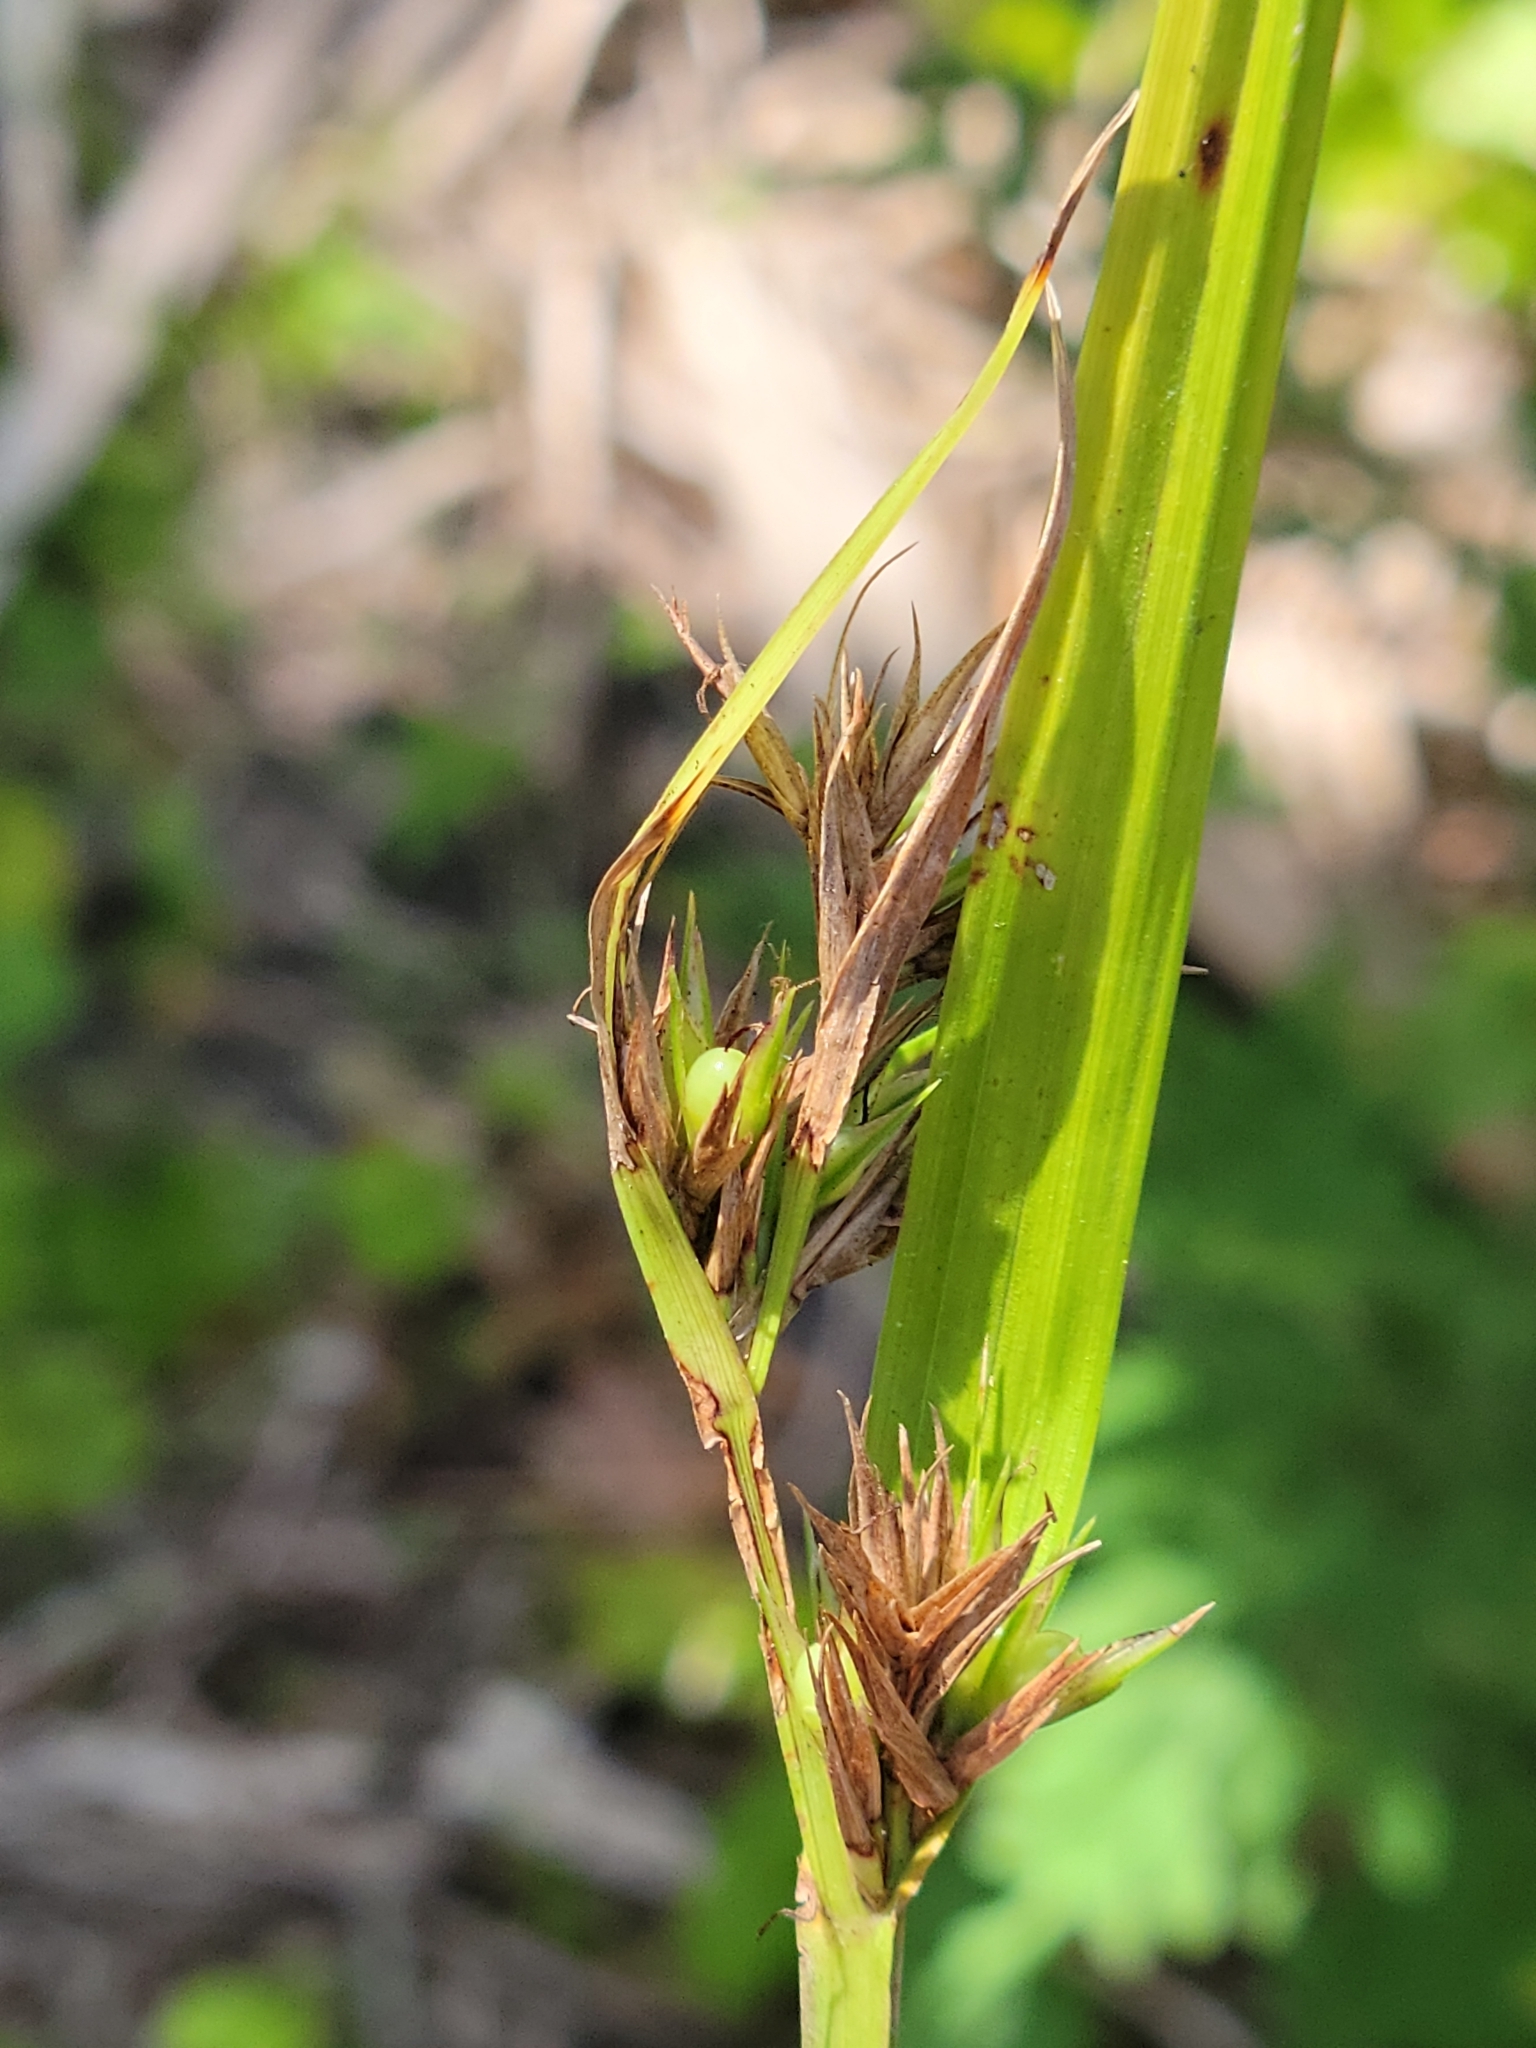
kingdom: Plantae
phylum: Tracheophyta
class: Liliopsida
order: Poales
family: Cyperaceae
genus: Scleria
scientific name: Scleria triglomerata
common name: Whip nutrush
